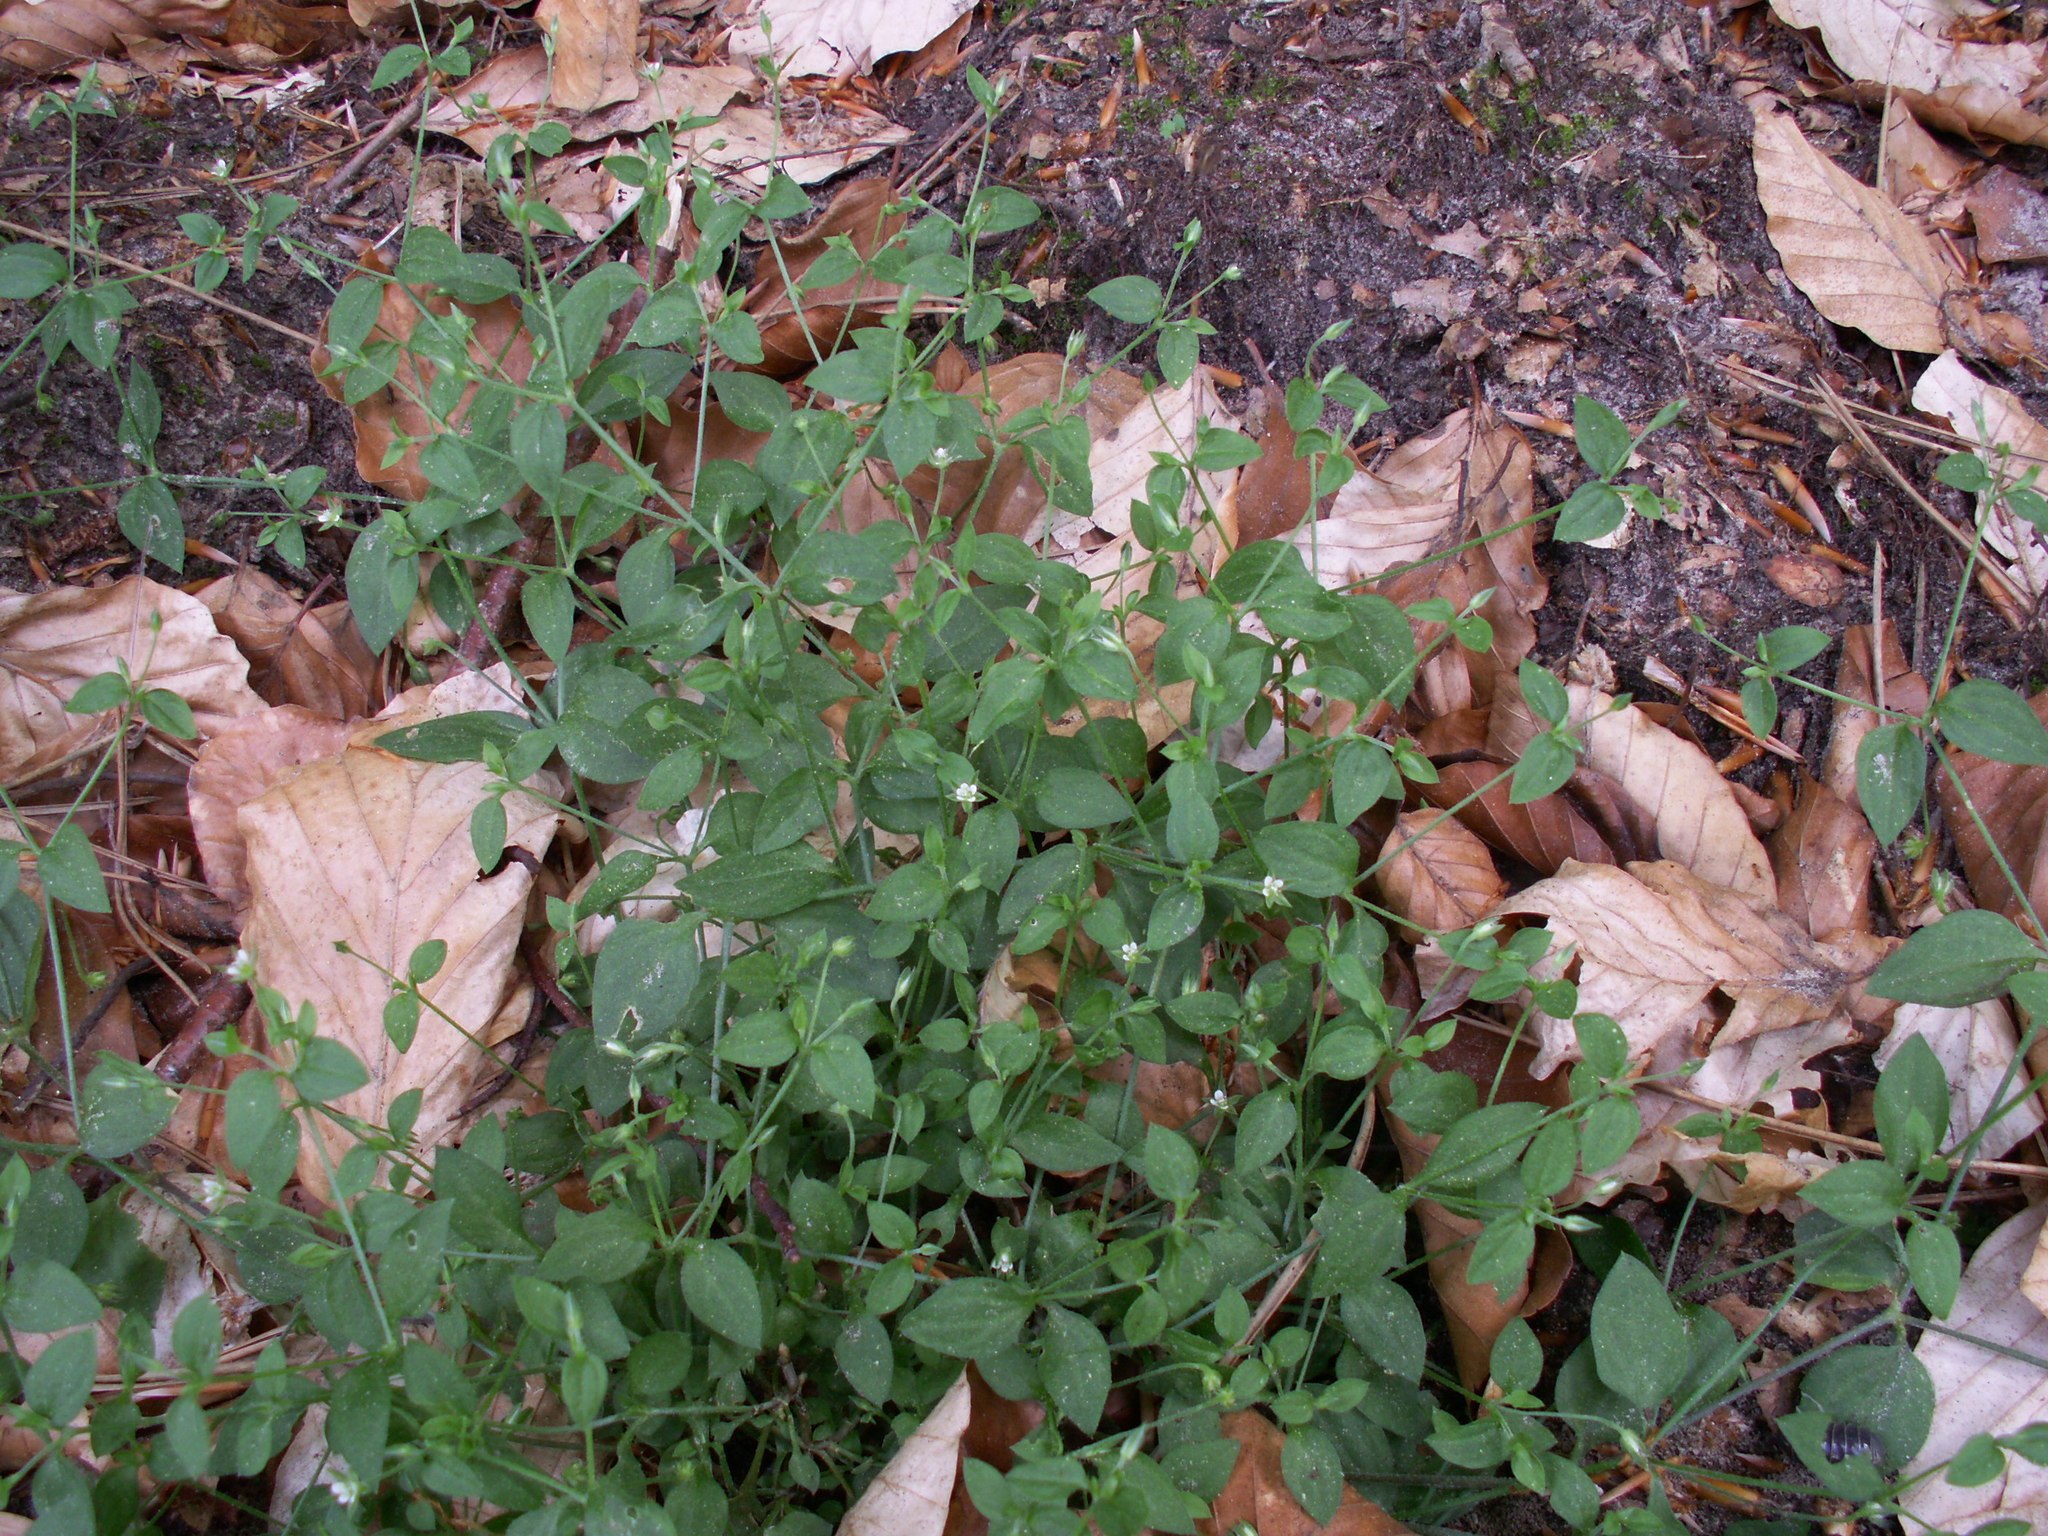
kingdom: Plantae
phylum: Tracheophyta
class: Magnoliopsida
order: Caryophyllales
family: Caryophyllaceae
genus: Moehringia
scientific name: Moehringia trinervia
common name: Three-nerved sandwort
